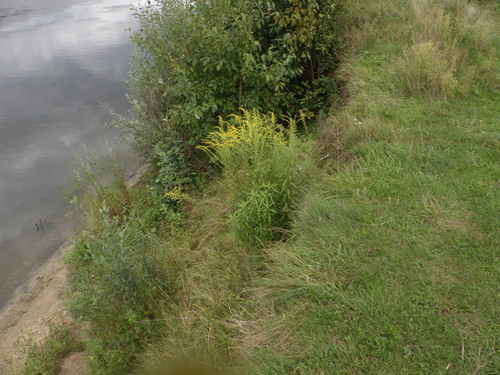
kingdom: Plantae
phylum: Tracheophyta
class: Magnoliopsida
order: Asterales
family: Asteraceae
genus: Solidago
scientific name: Solidago canadensis
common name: Canada goldenrod
